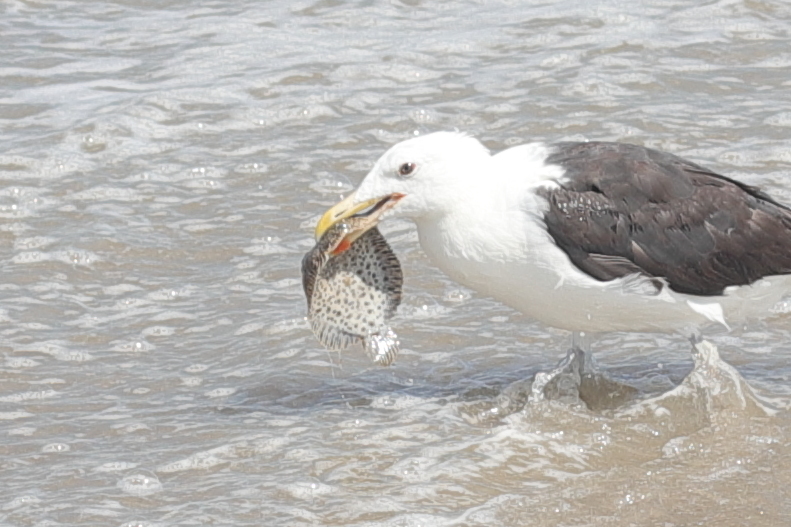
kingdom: Animalia
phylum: Chordata
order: Pleuronectiformes
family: Achiridae
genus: Trinectes
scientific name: Trinectes maculatus
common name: Hogchoker
